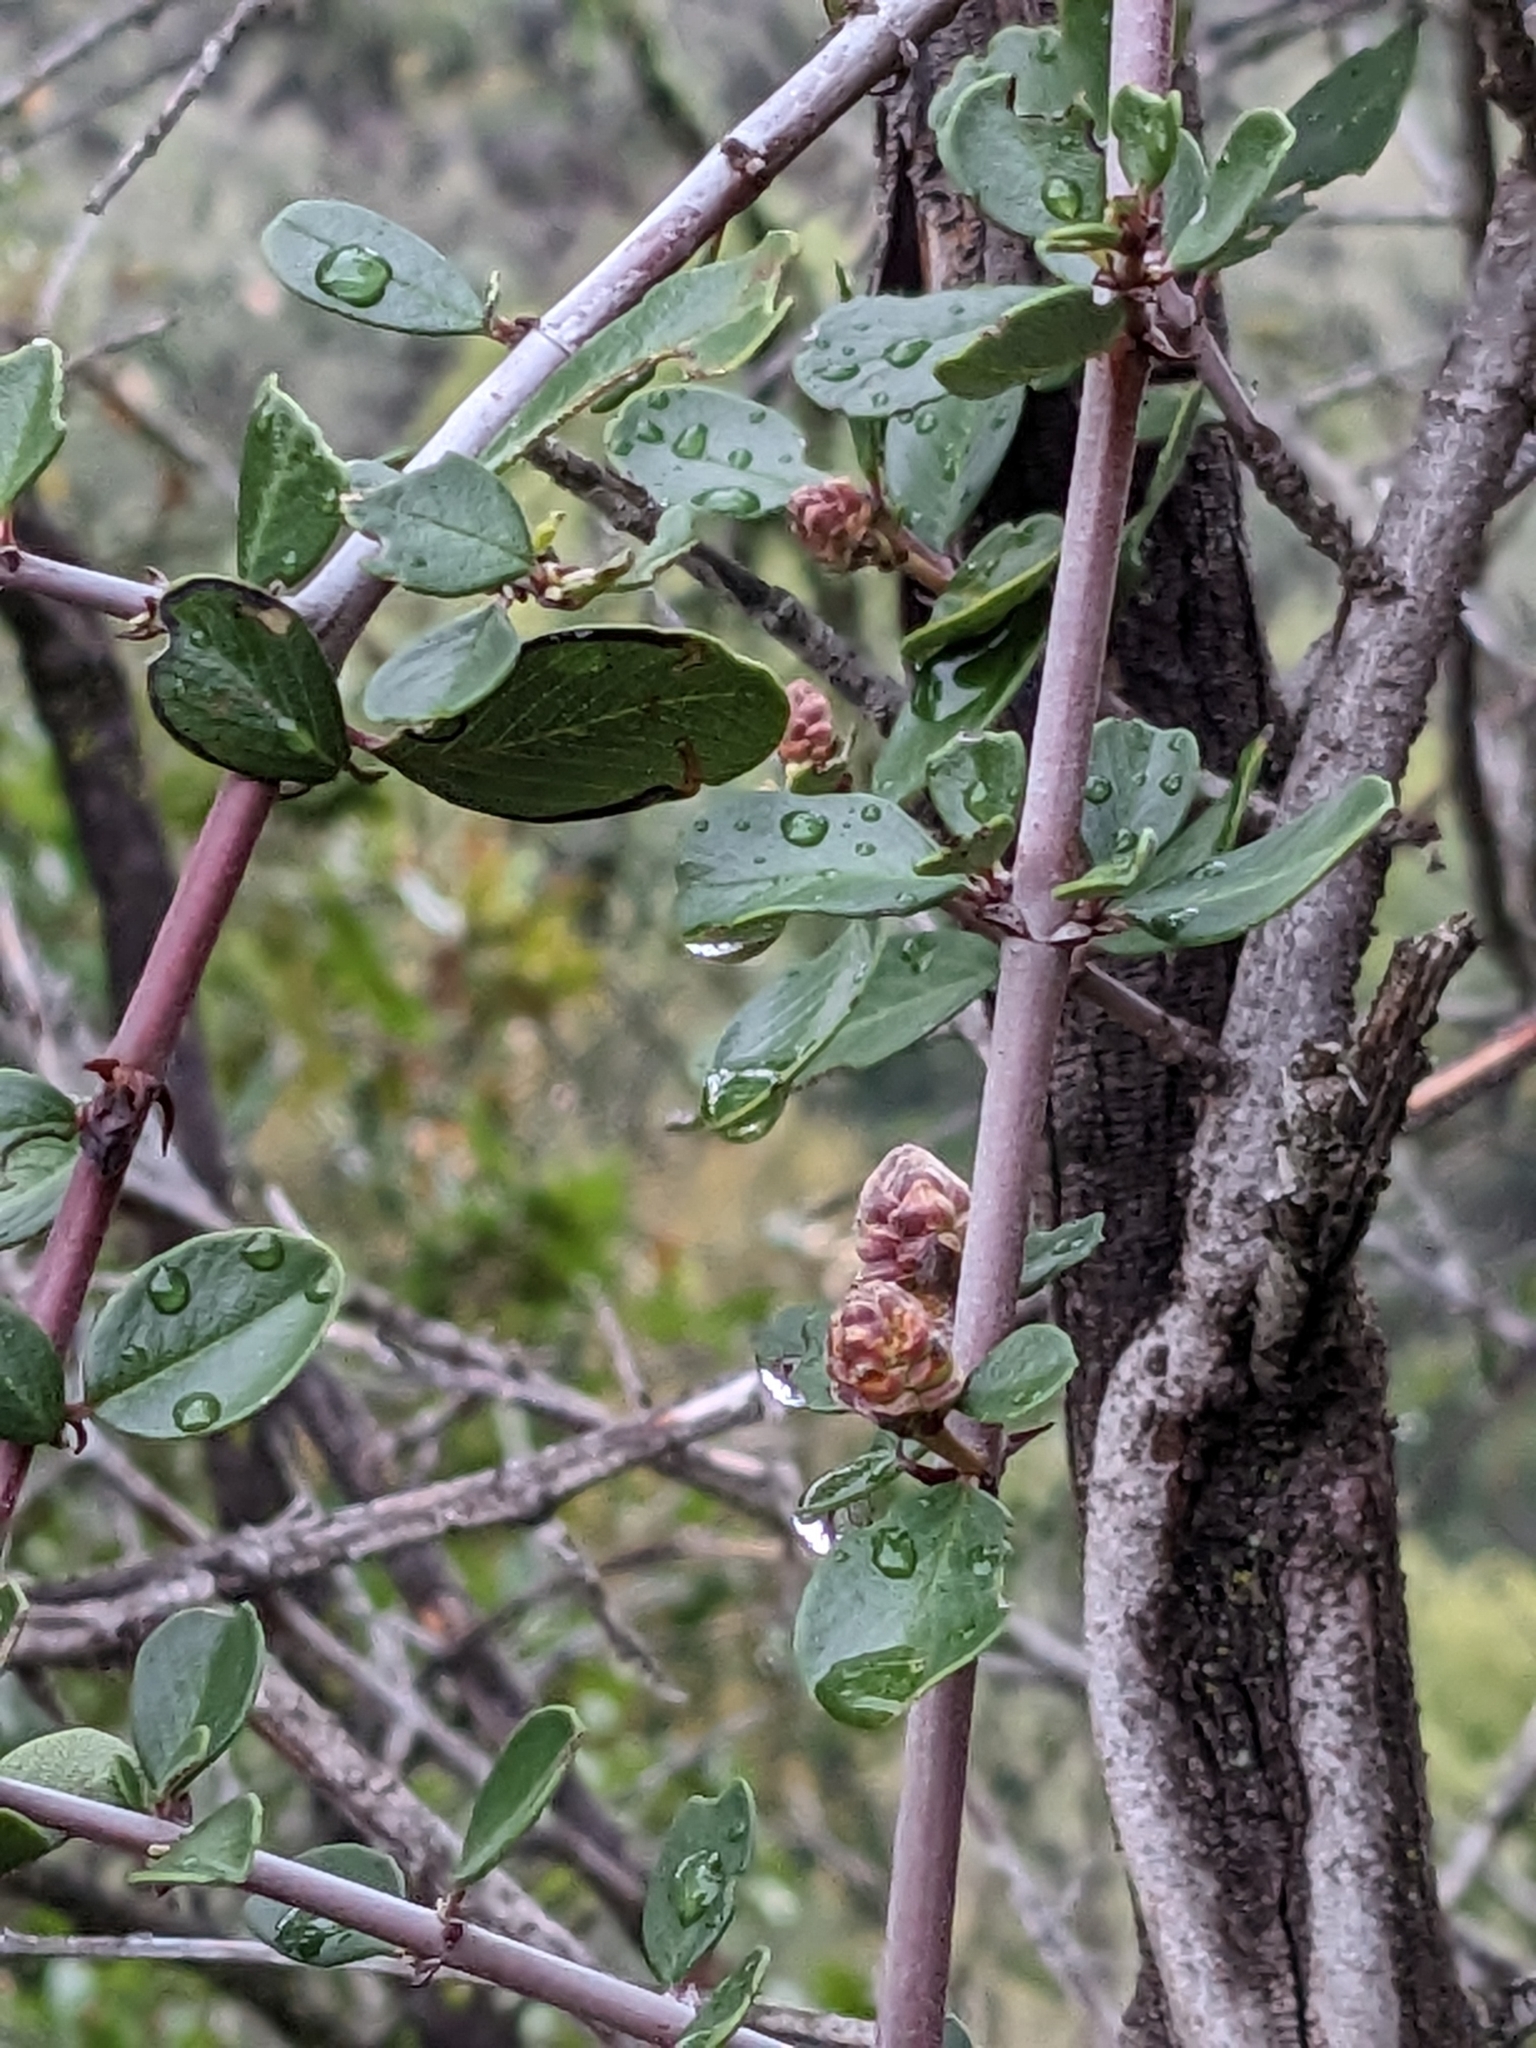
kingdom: Plantae
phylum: Tracheophyta
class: Magnoliopsida
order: Rosales
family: Rhamnaceae
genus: Ceanothus
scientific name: Ceanothus cuneatus
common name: Cuneate ceanothus
